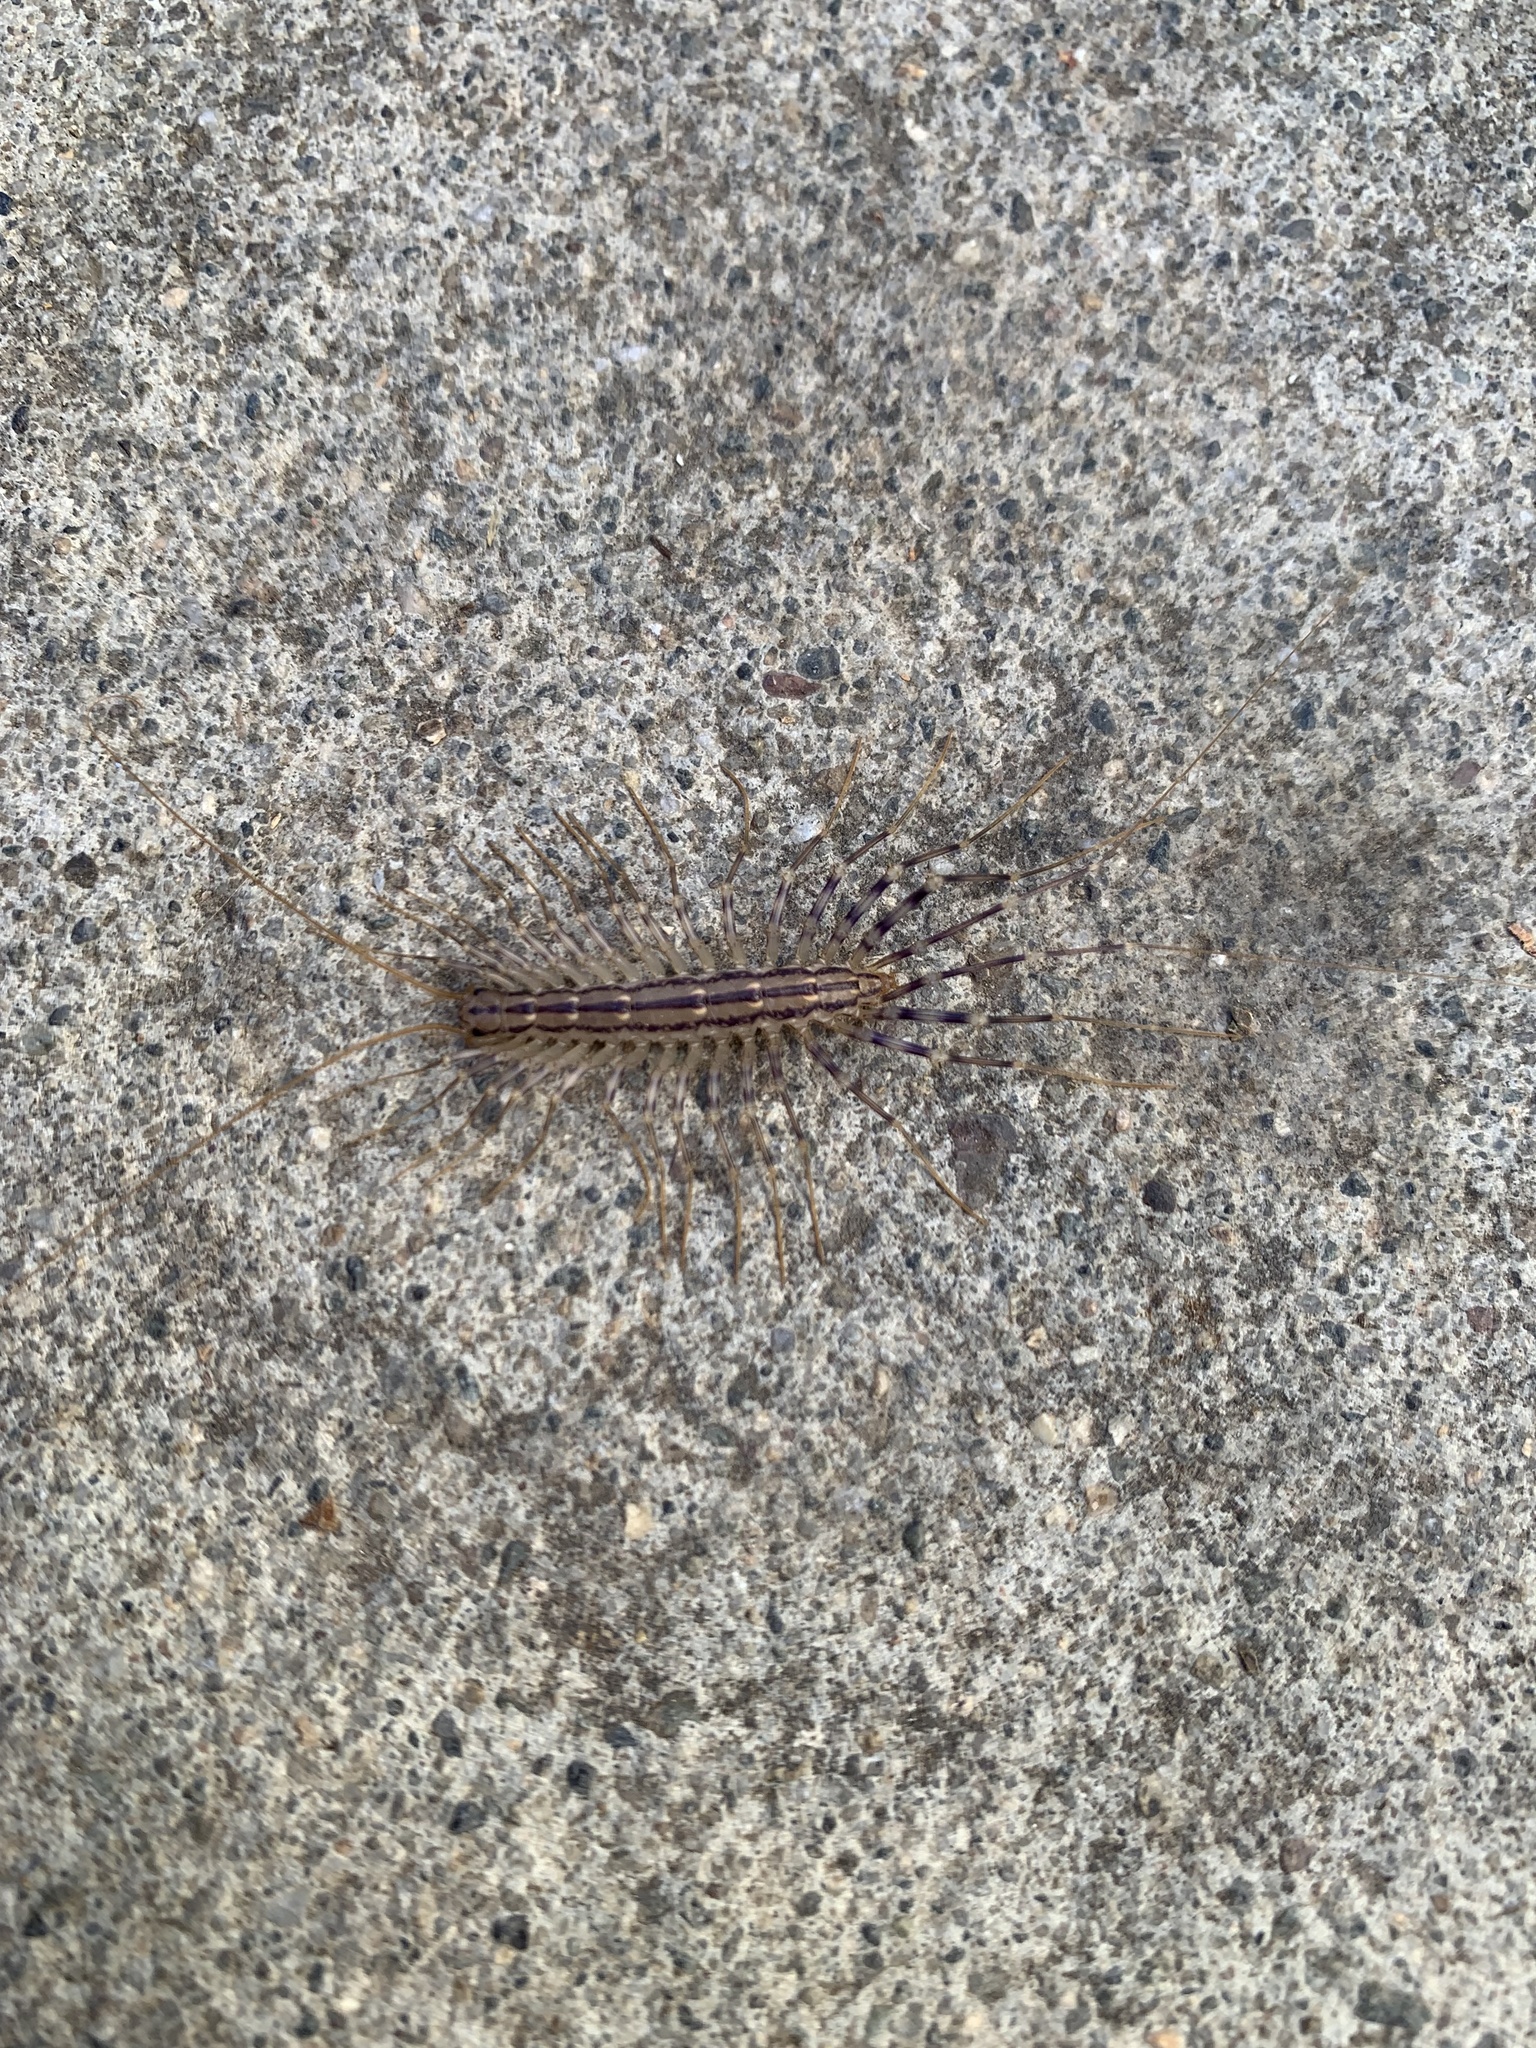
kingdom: Animalia
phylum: Arthropoda
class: Chilopoda
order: Scutigeromorpha
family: Scutigeridae
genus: Scutigera
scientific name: Scutigera coleoptrata
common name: House centipede
